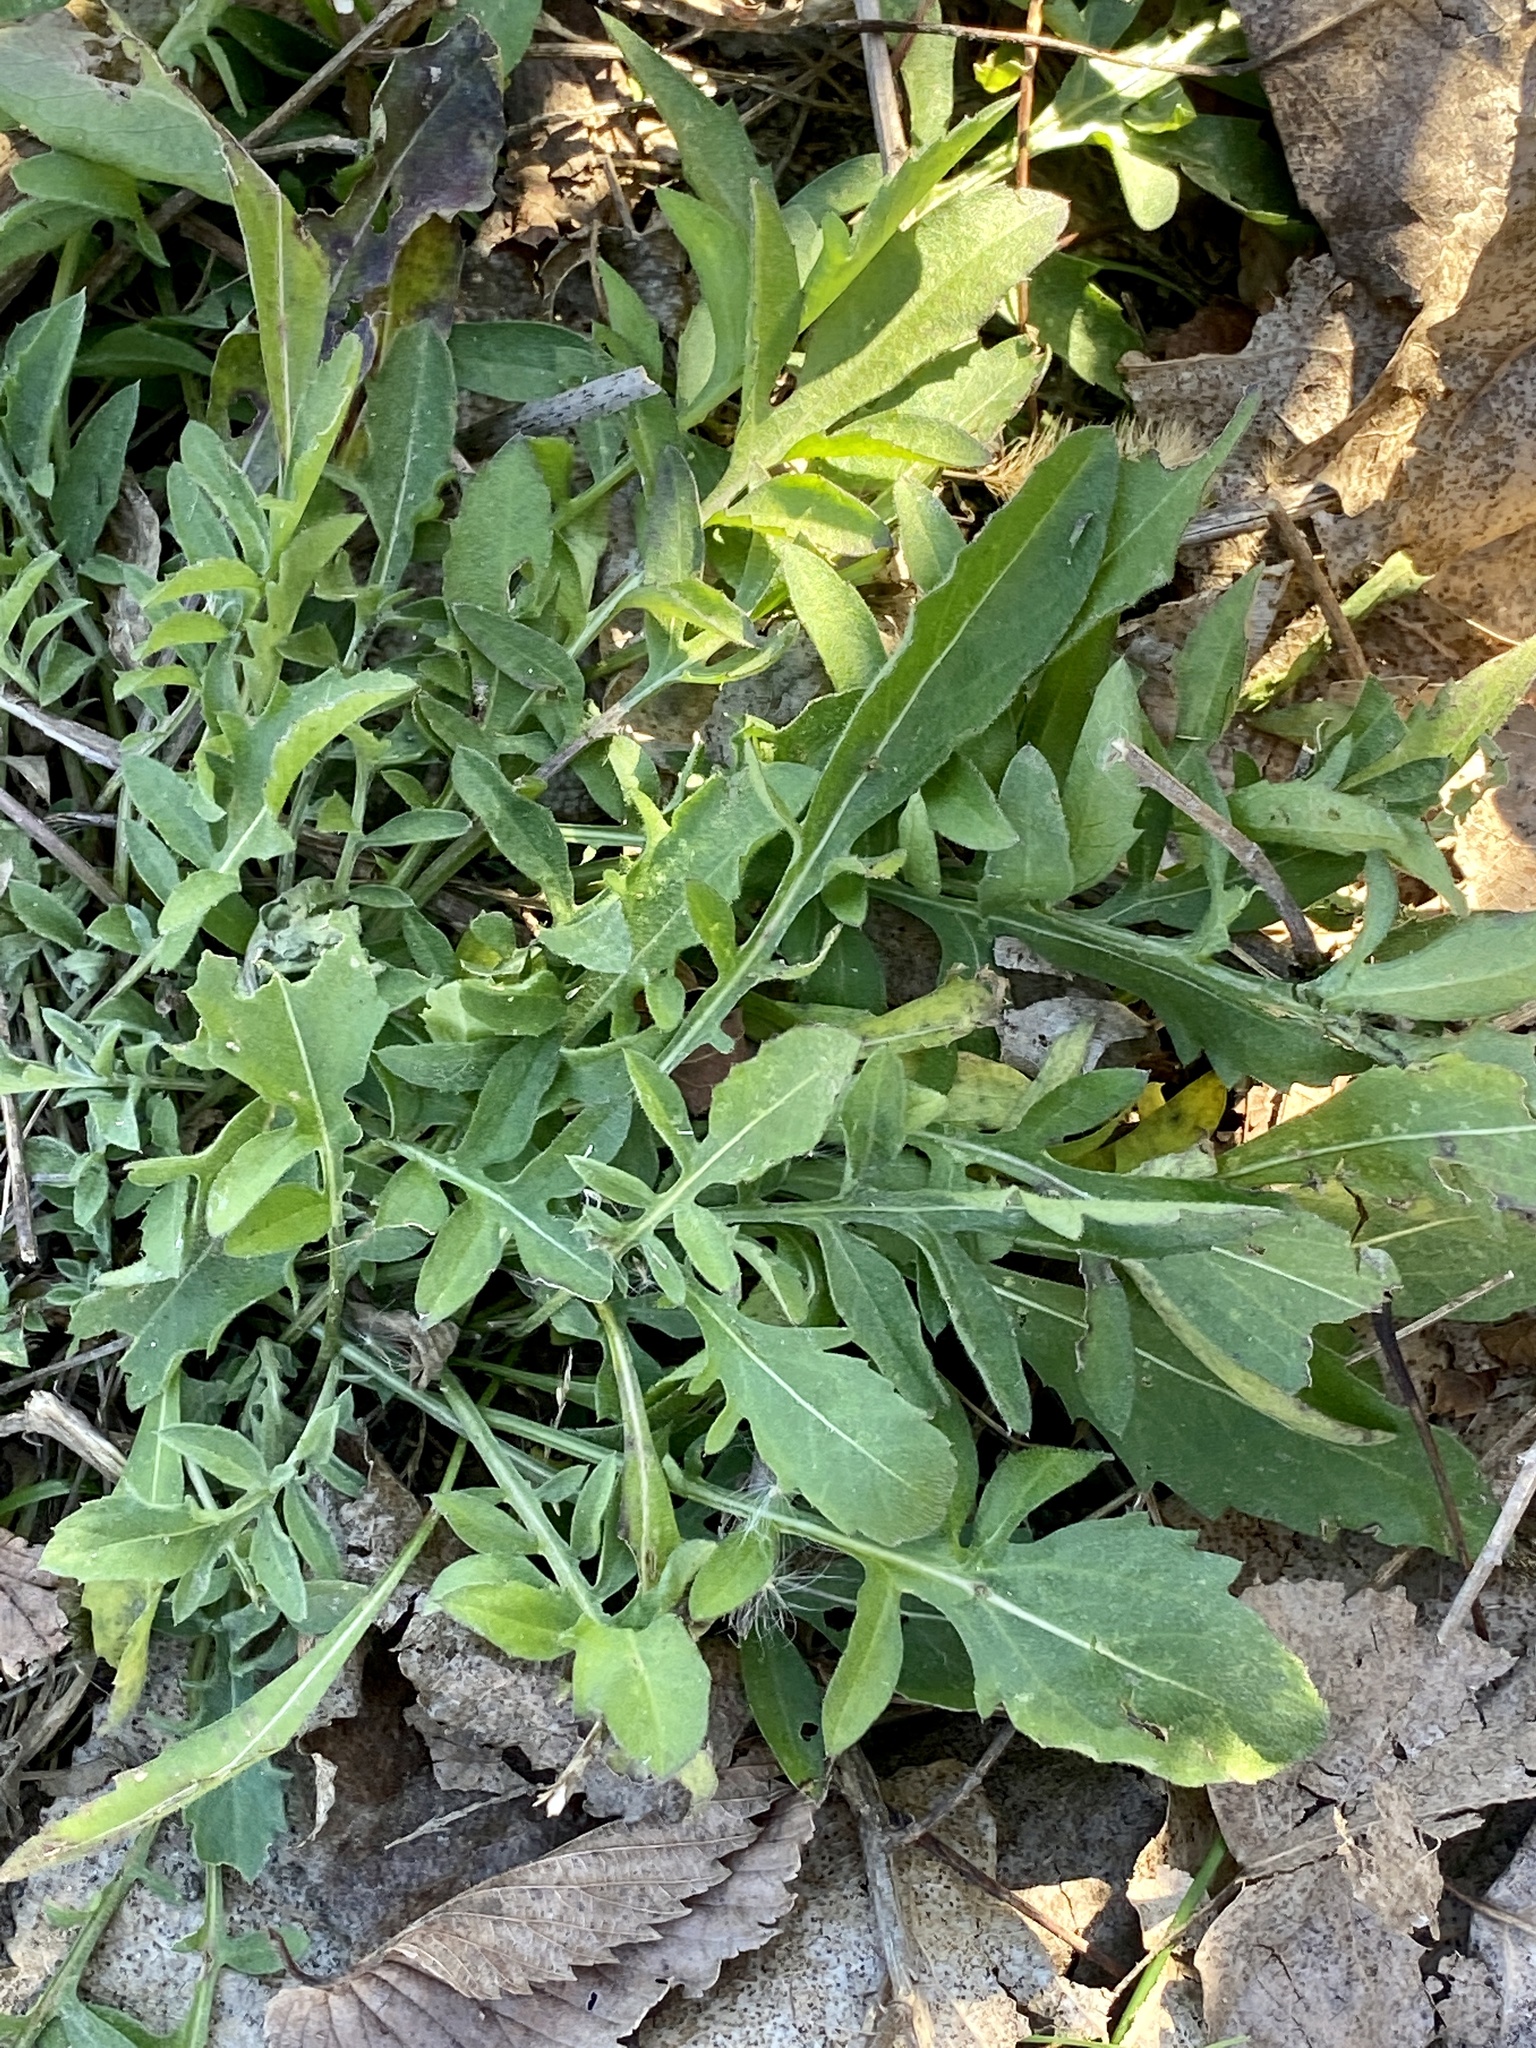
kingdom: Plantae
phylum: Tracheophyta
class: Magnoliopsida
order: Asterales
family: Asteraceae
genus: Centaurea
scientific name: Centaurea stoebe
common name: Spotted knapweed
